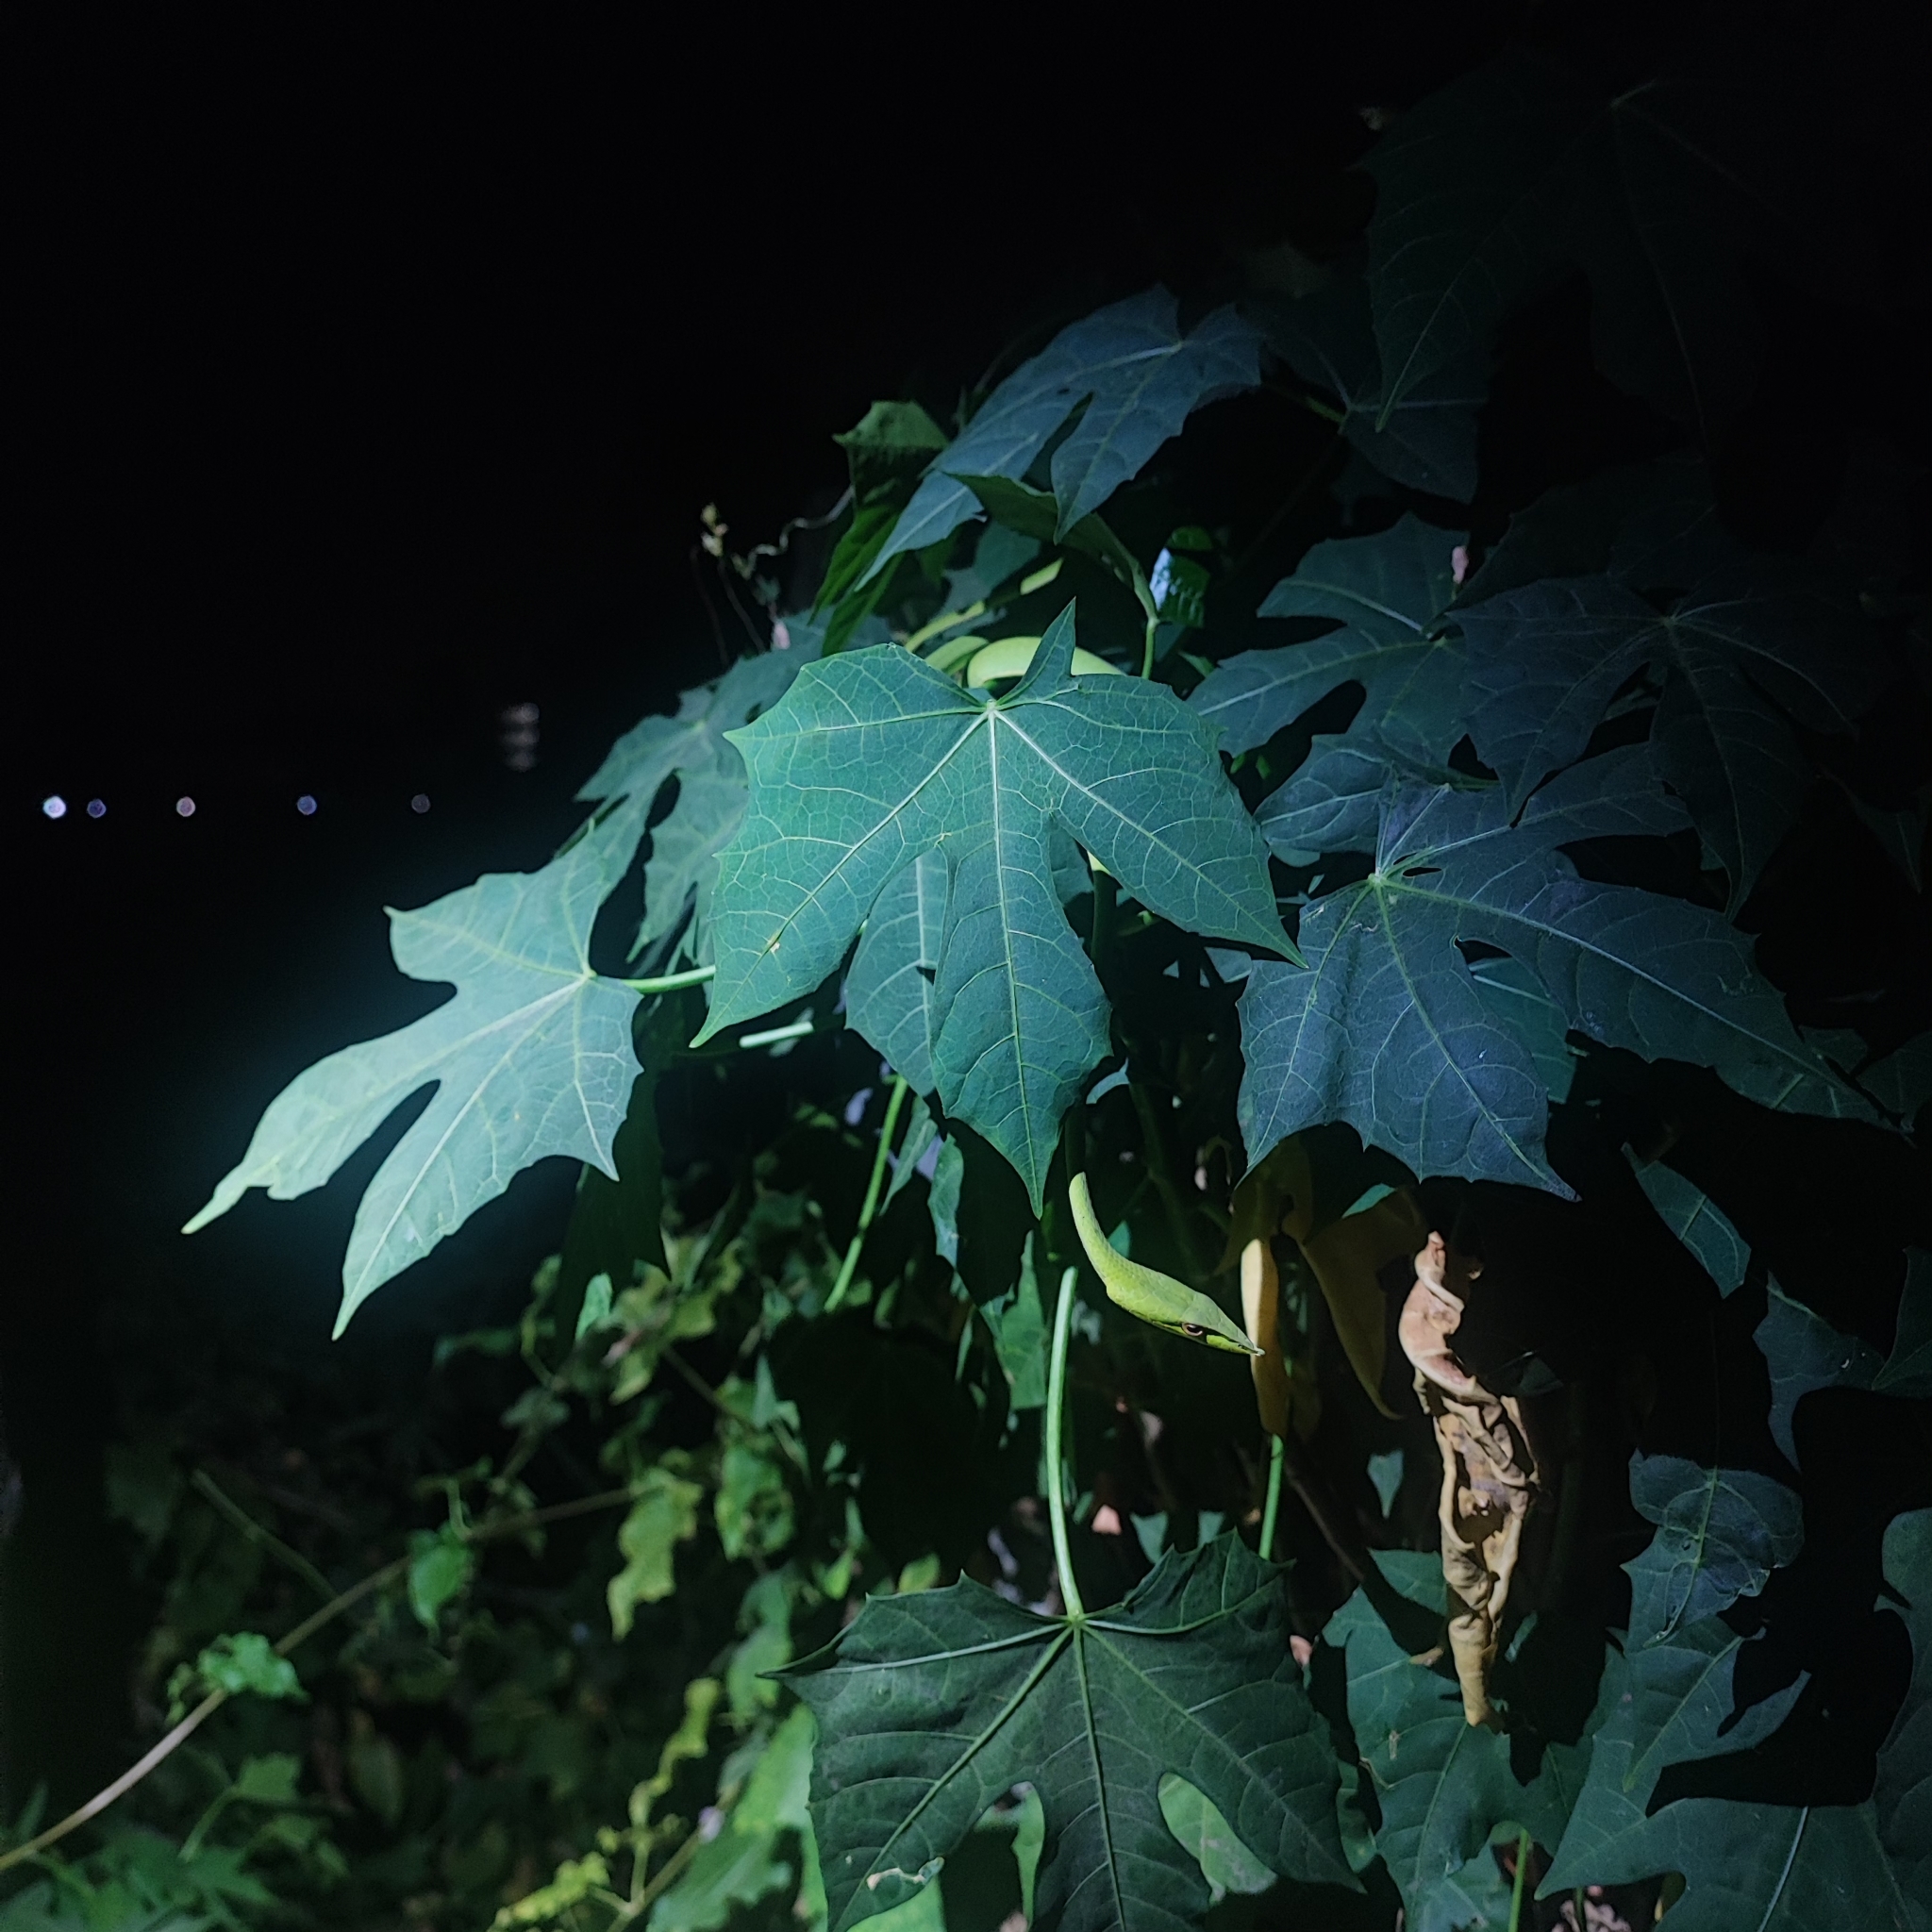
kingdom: Animalia
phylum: Chordata
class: Squamata
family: Colubridae
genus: Ahaetulla
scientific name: Ahaetulla
